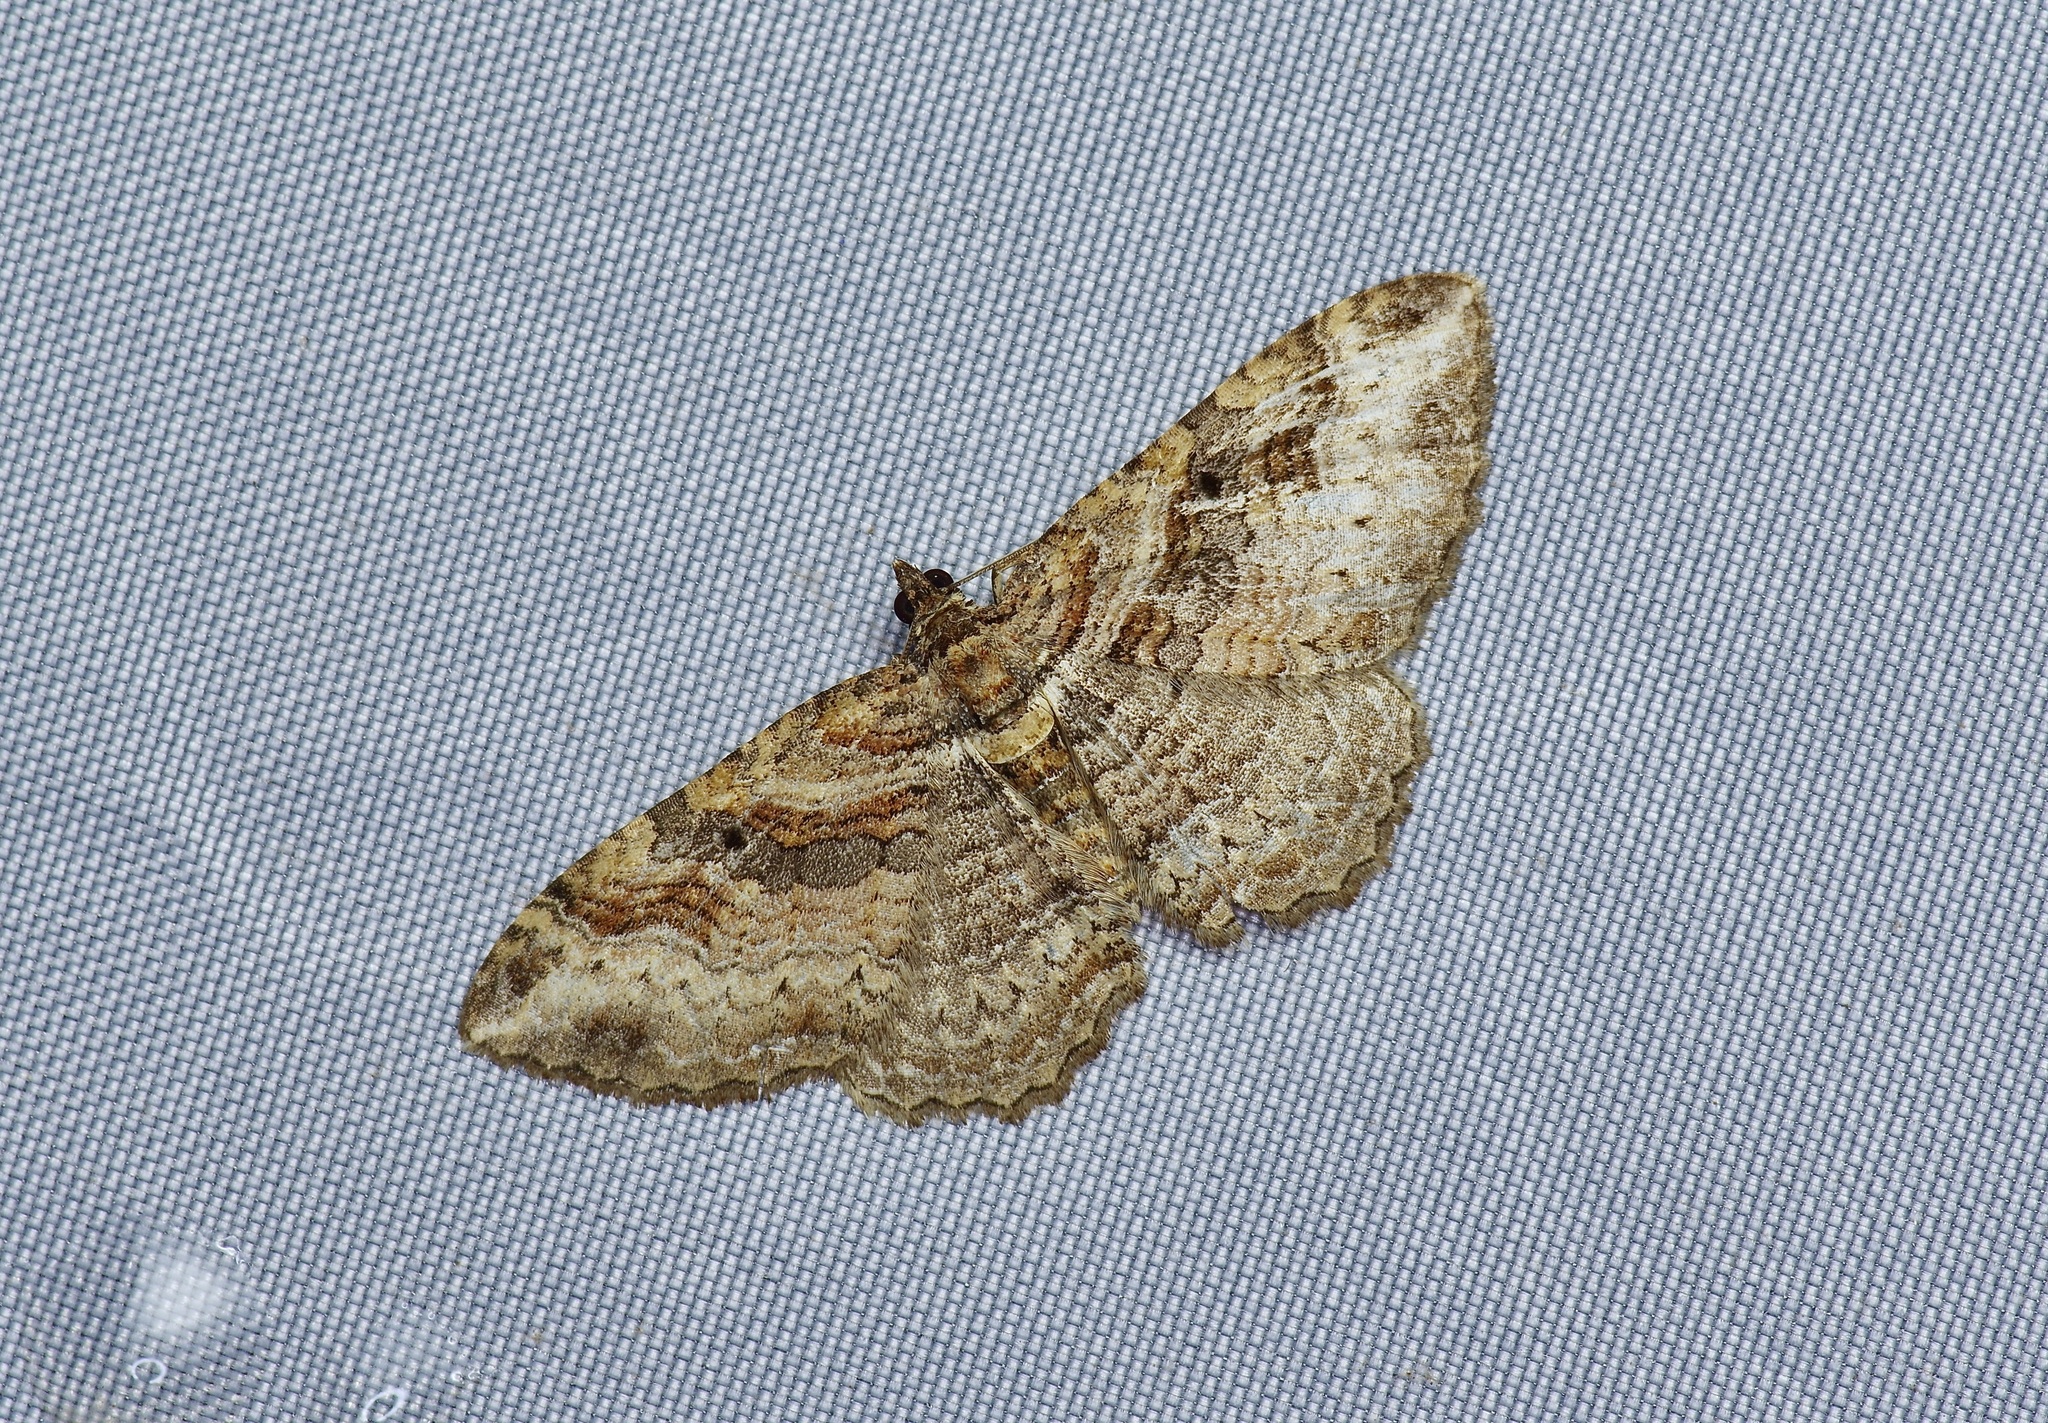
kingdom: Animalia
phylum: Arthropoda
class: Insecta
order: Lepidoptera
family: Geometridae
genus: Costaconvexa
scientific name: Costaconvexa centrostrigaria
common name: Bent-line carpet
